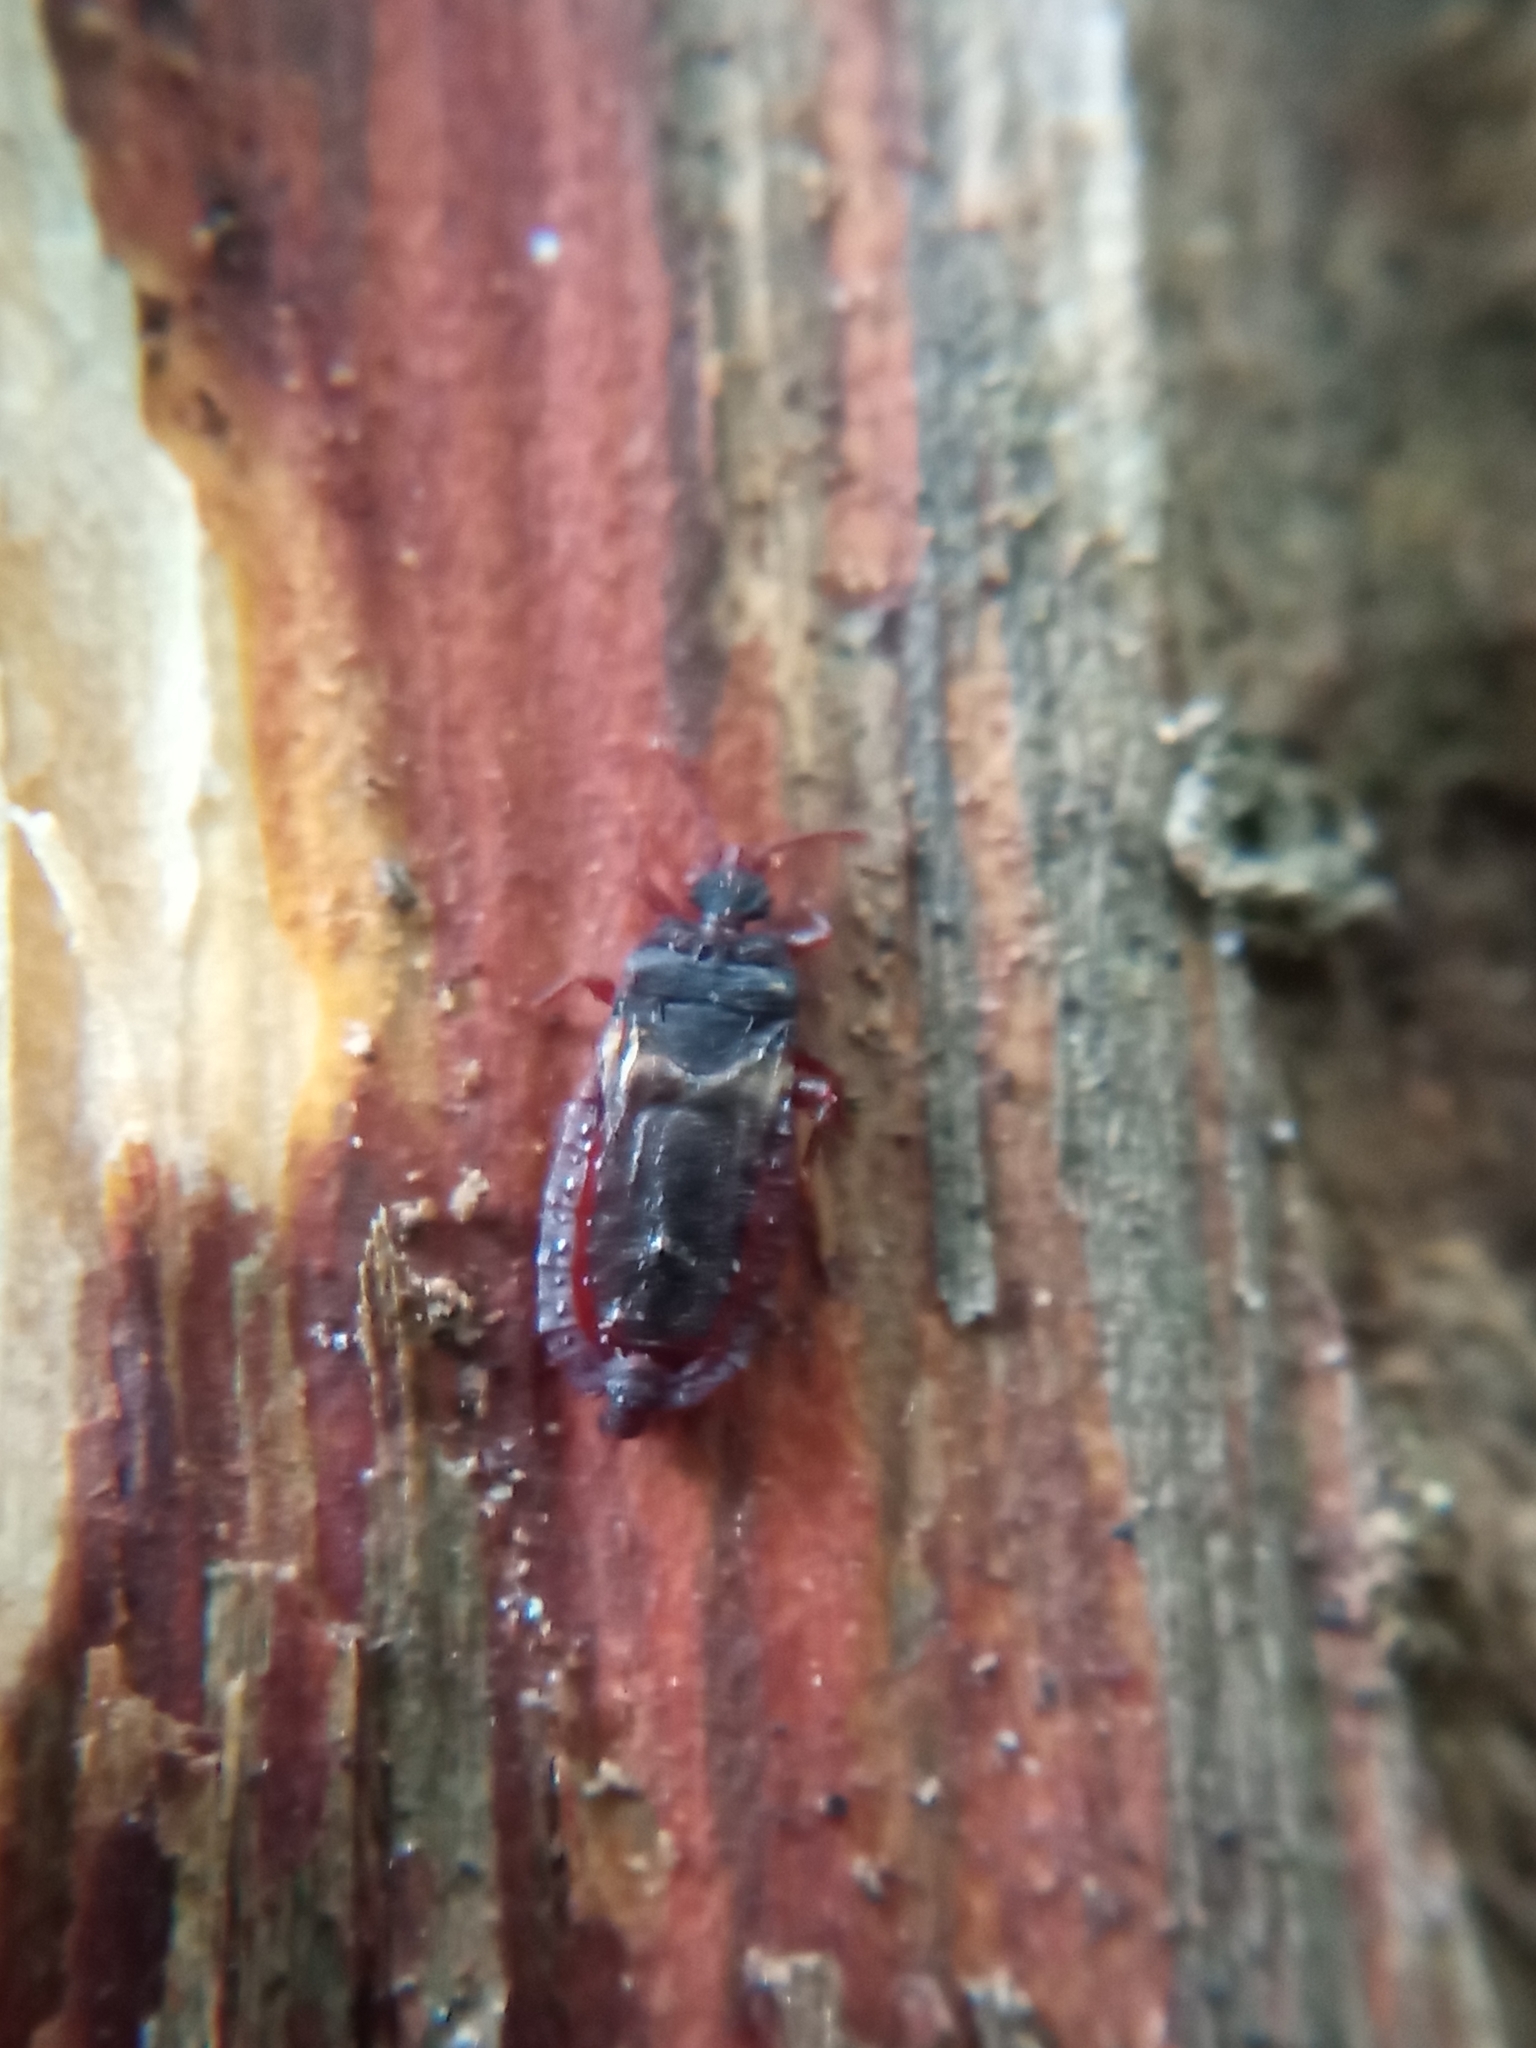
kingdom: Animalia
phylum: Arthropoda
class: Insecta
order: Hemiptera
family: Aradidae
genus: Aneurus
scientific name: Aneurus laevis
